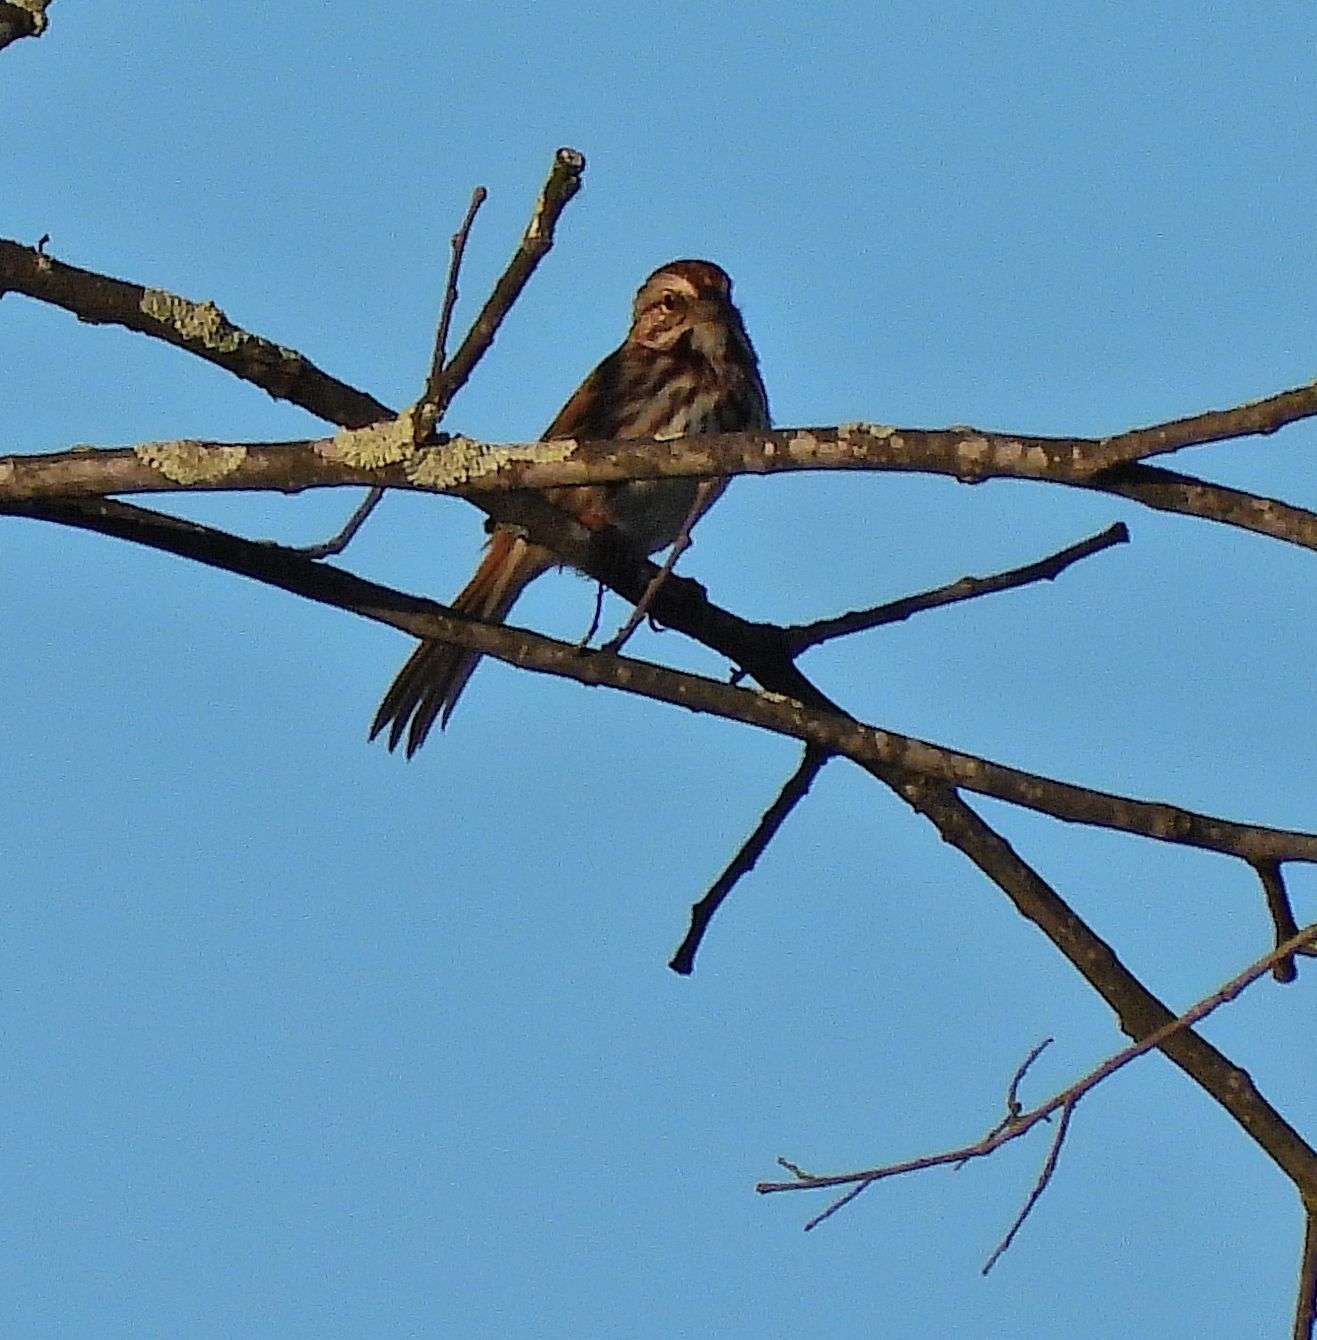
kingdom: Animalia
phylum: Chordata
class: Aves
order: Passeriformes
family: Passerellidae
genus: Melospiza
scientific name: Melospiza melodia
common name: Song sparrow
